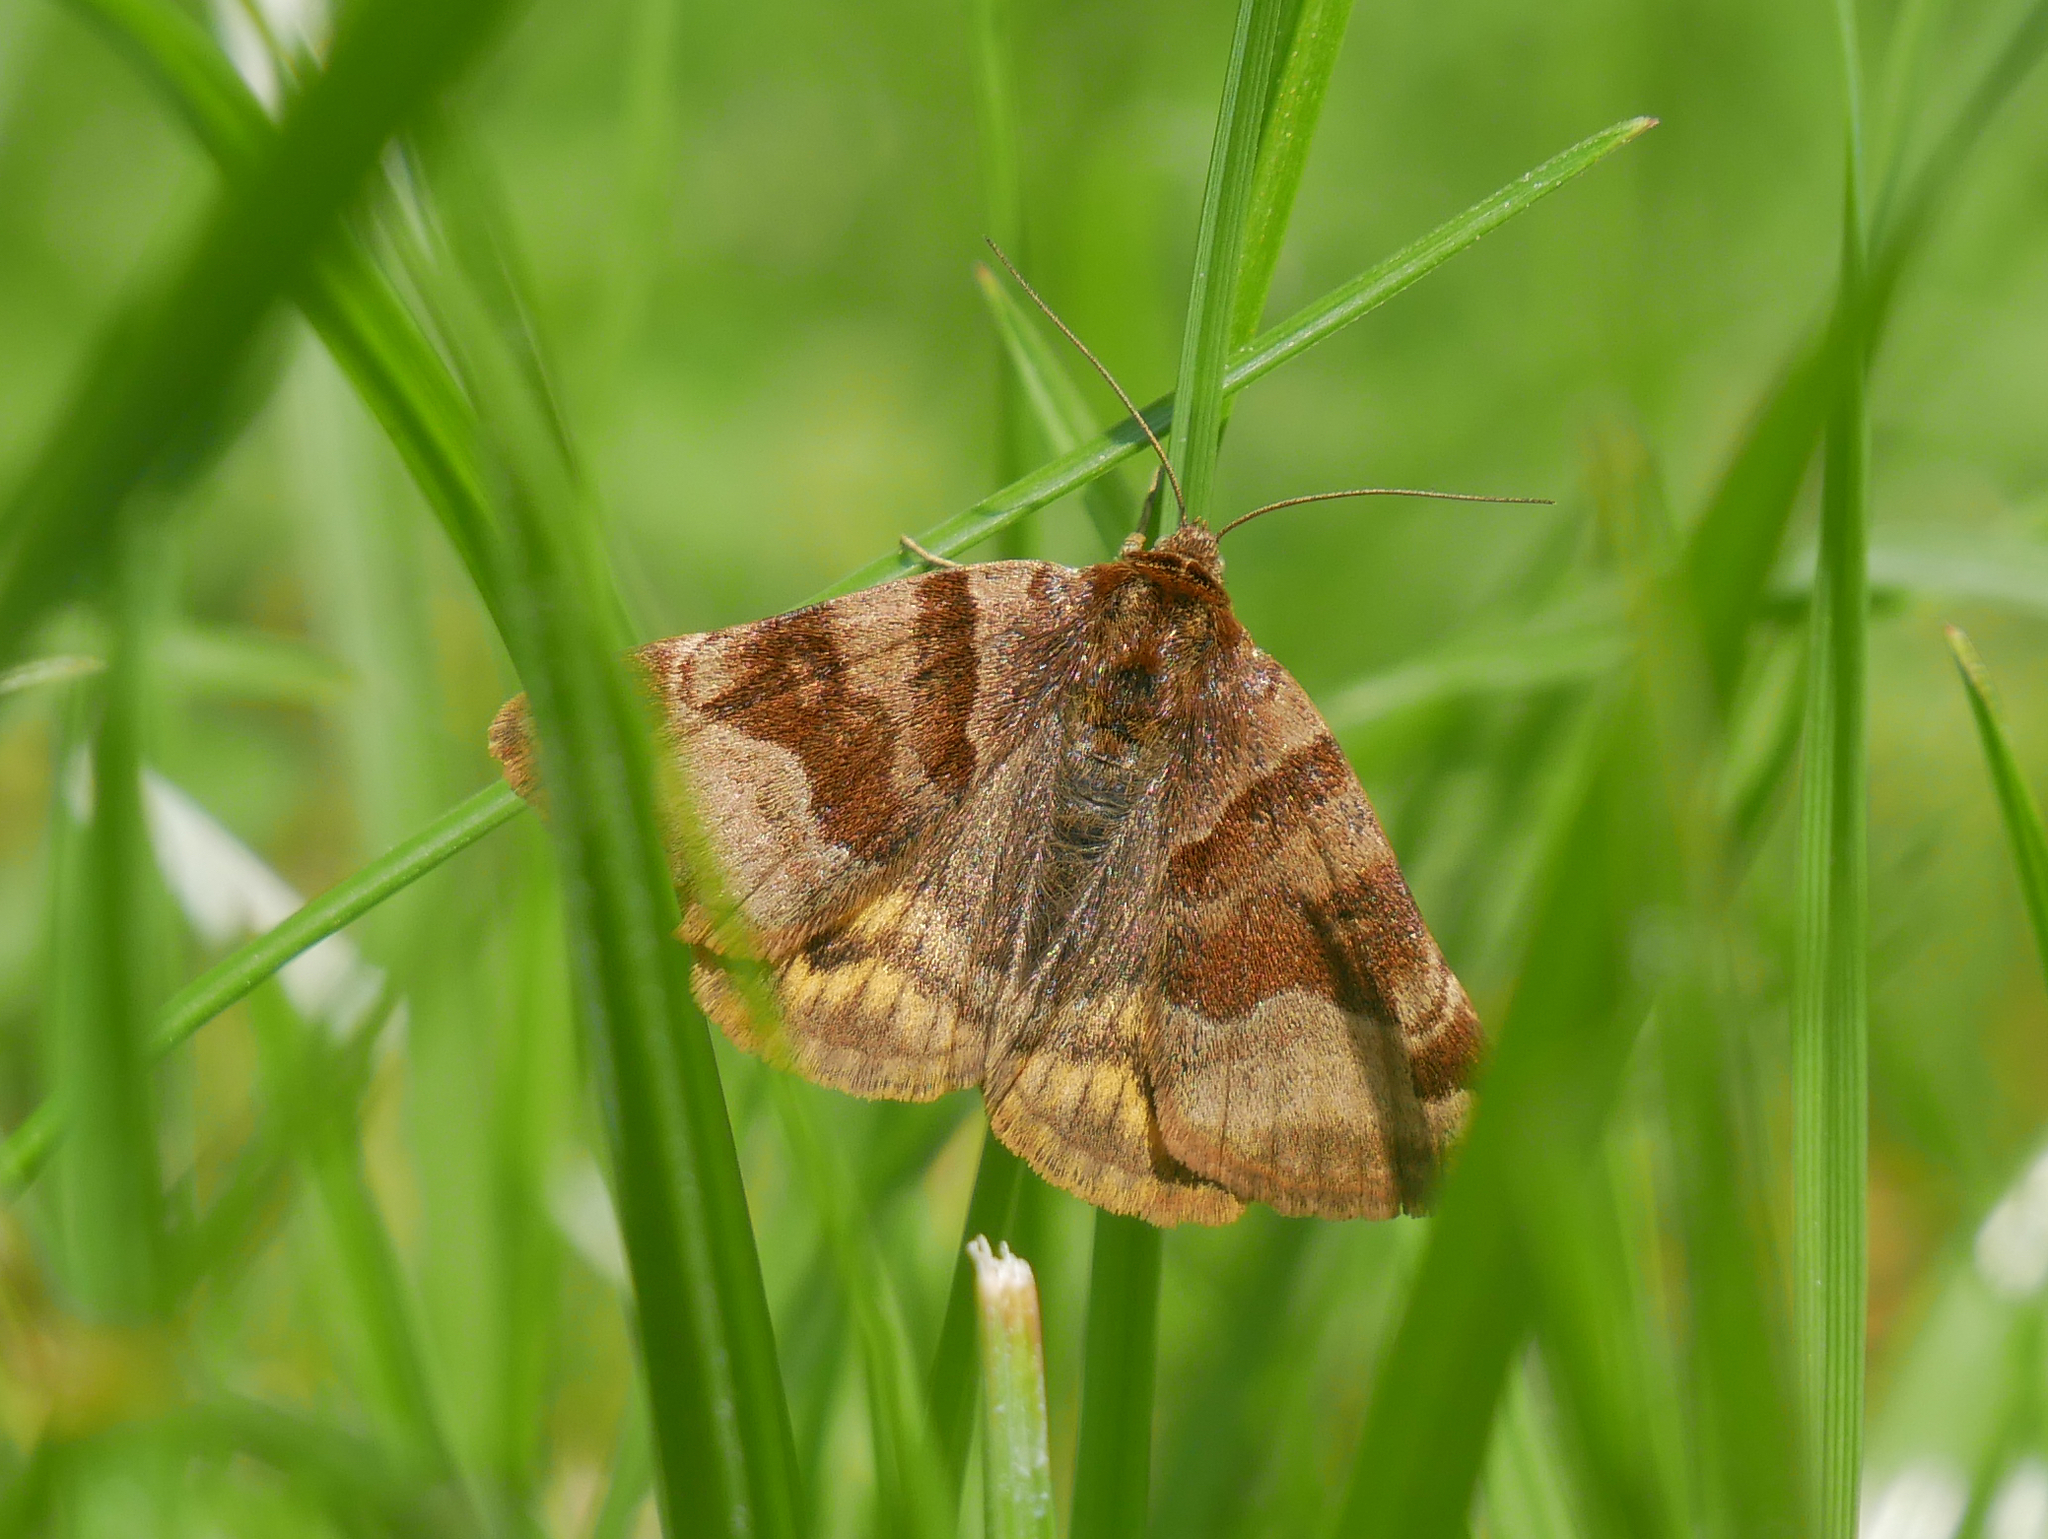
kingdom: Animalia
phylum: Arthropoda
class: Insecta
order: Lepidoptera
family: Erebidae
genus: Euclidia
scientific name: Euclidia glyphica
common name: Burnet companion
